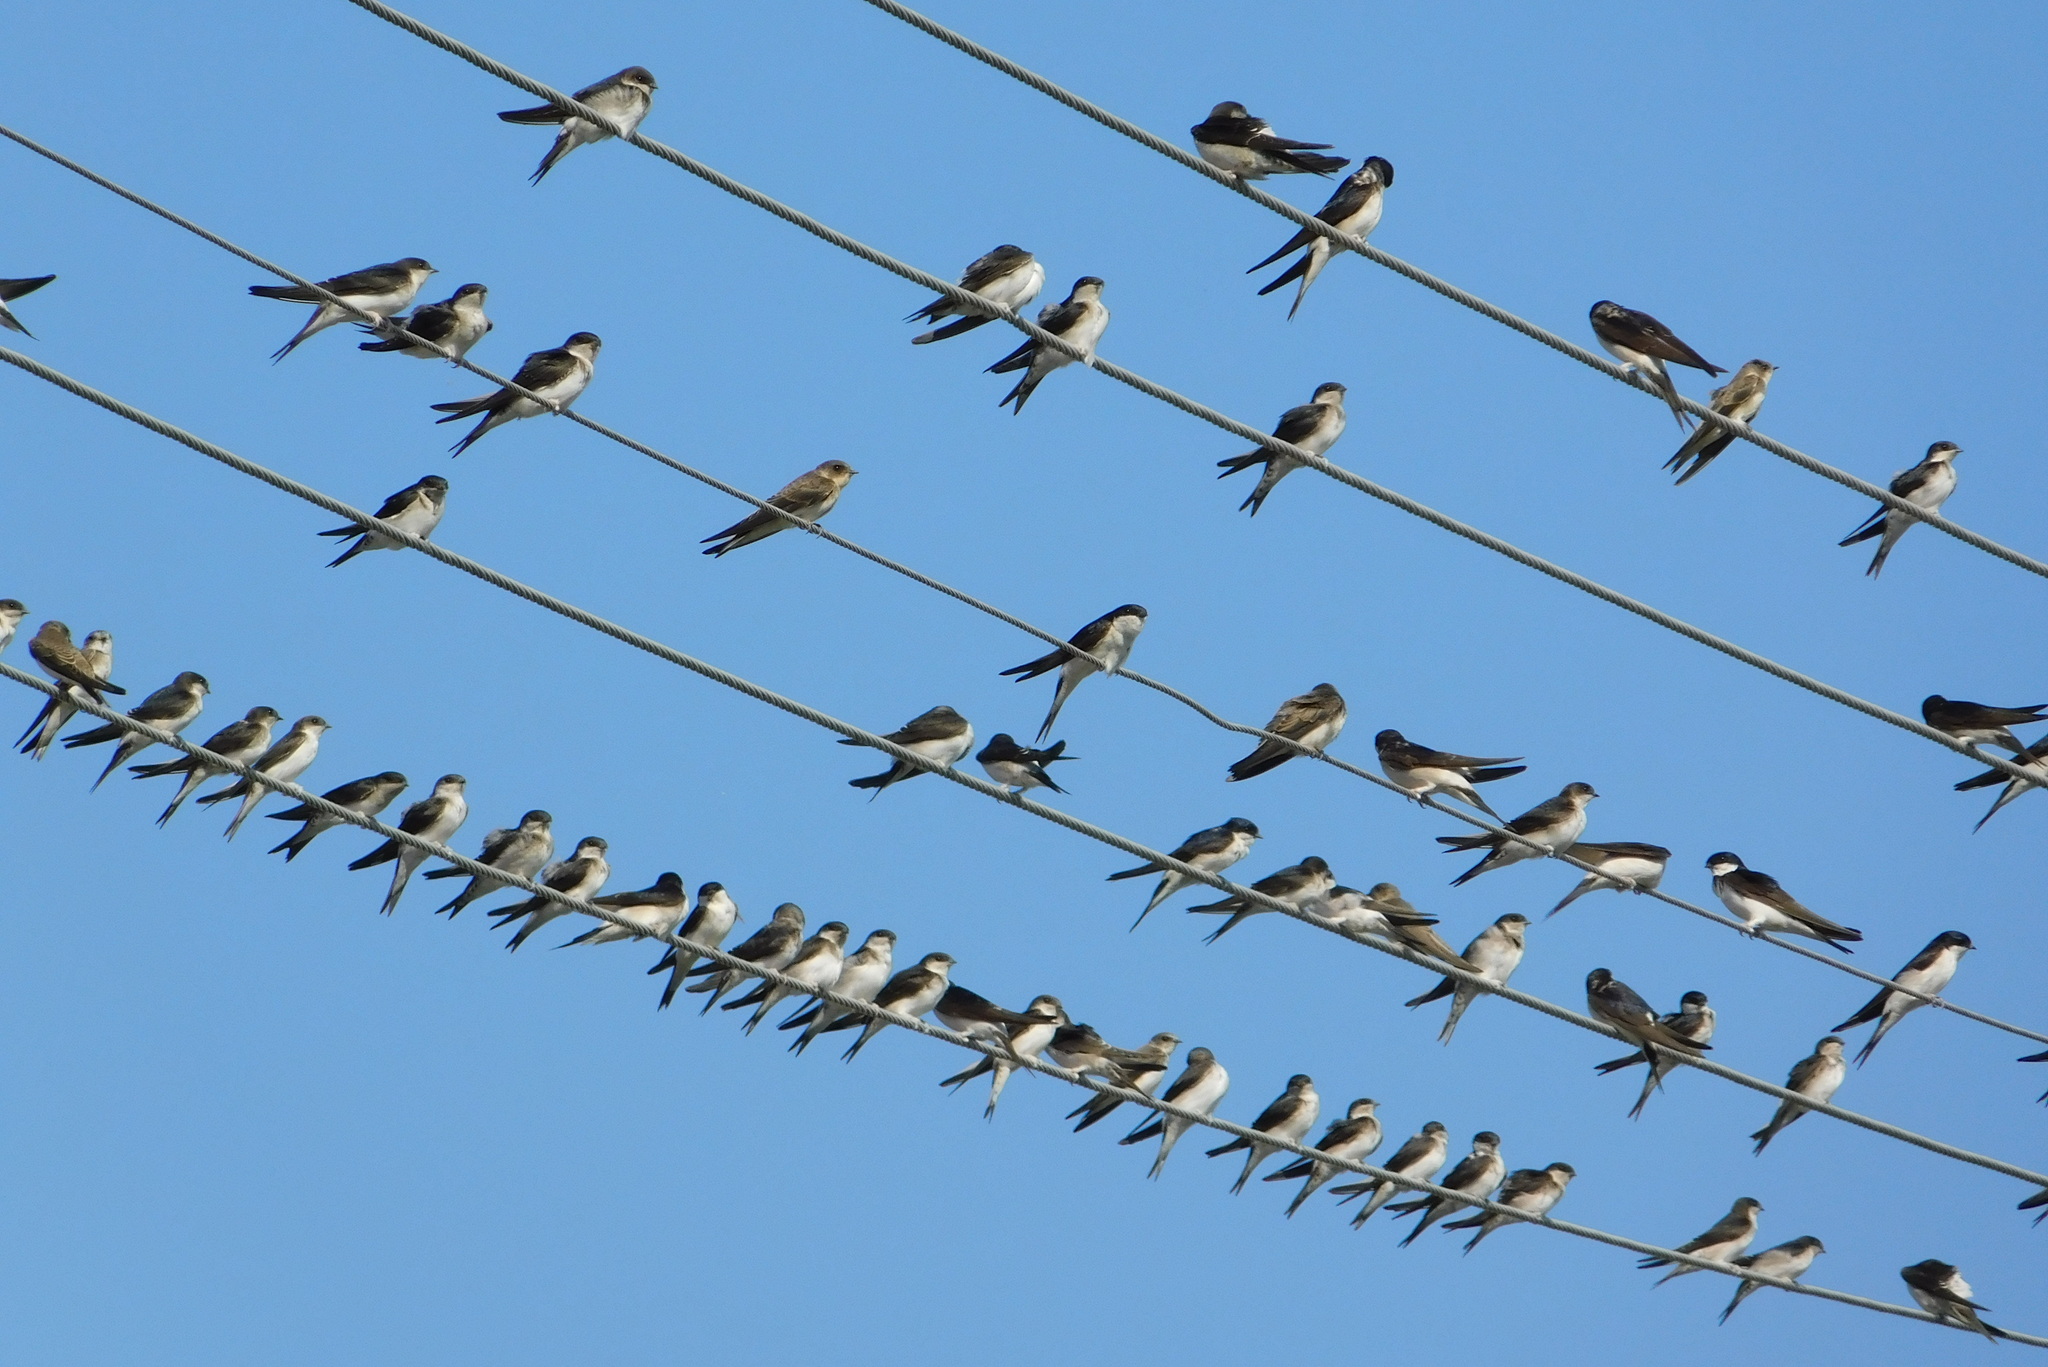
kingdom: Animalia
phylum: Chordata
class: Aves
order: Passeriformes
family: Hirundinidae
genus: Delichon
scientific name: Delichon urbicum
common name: Common house martin
